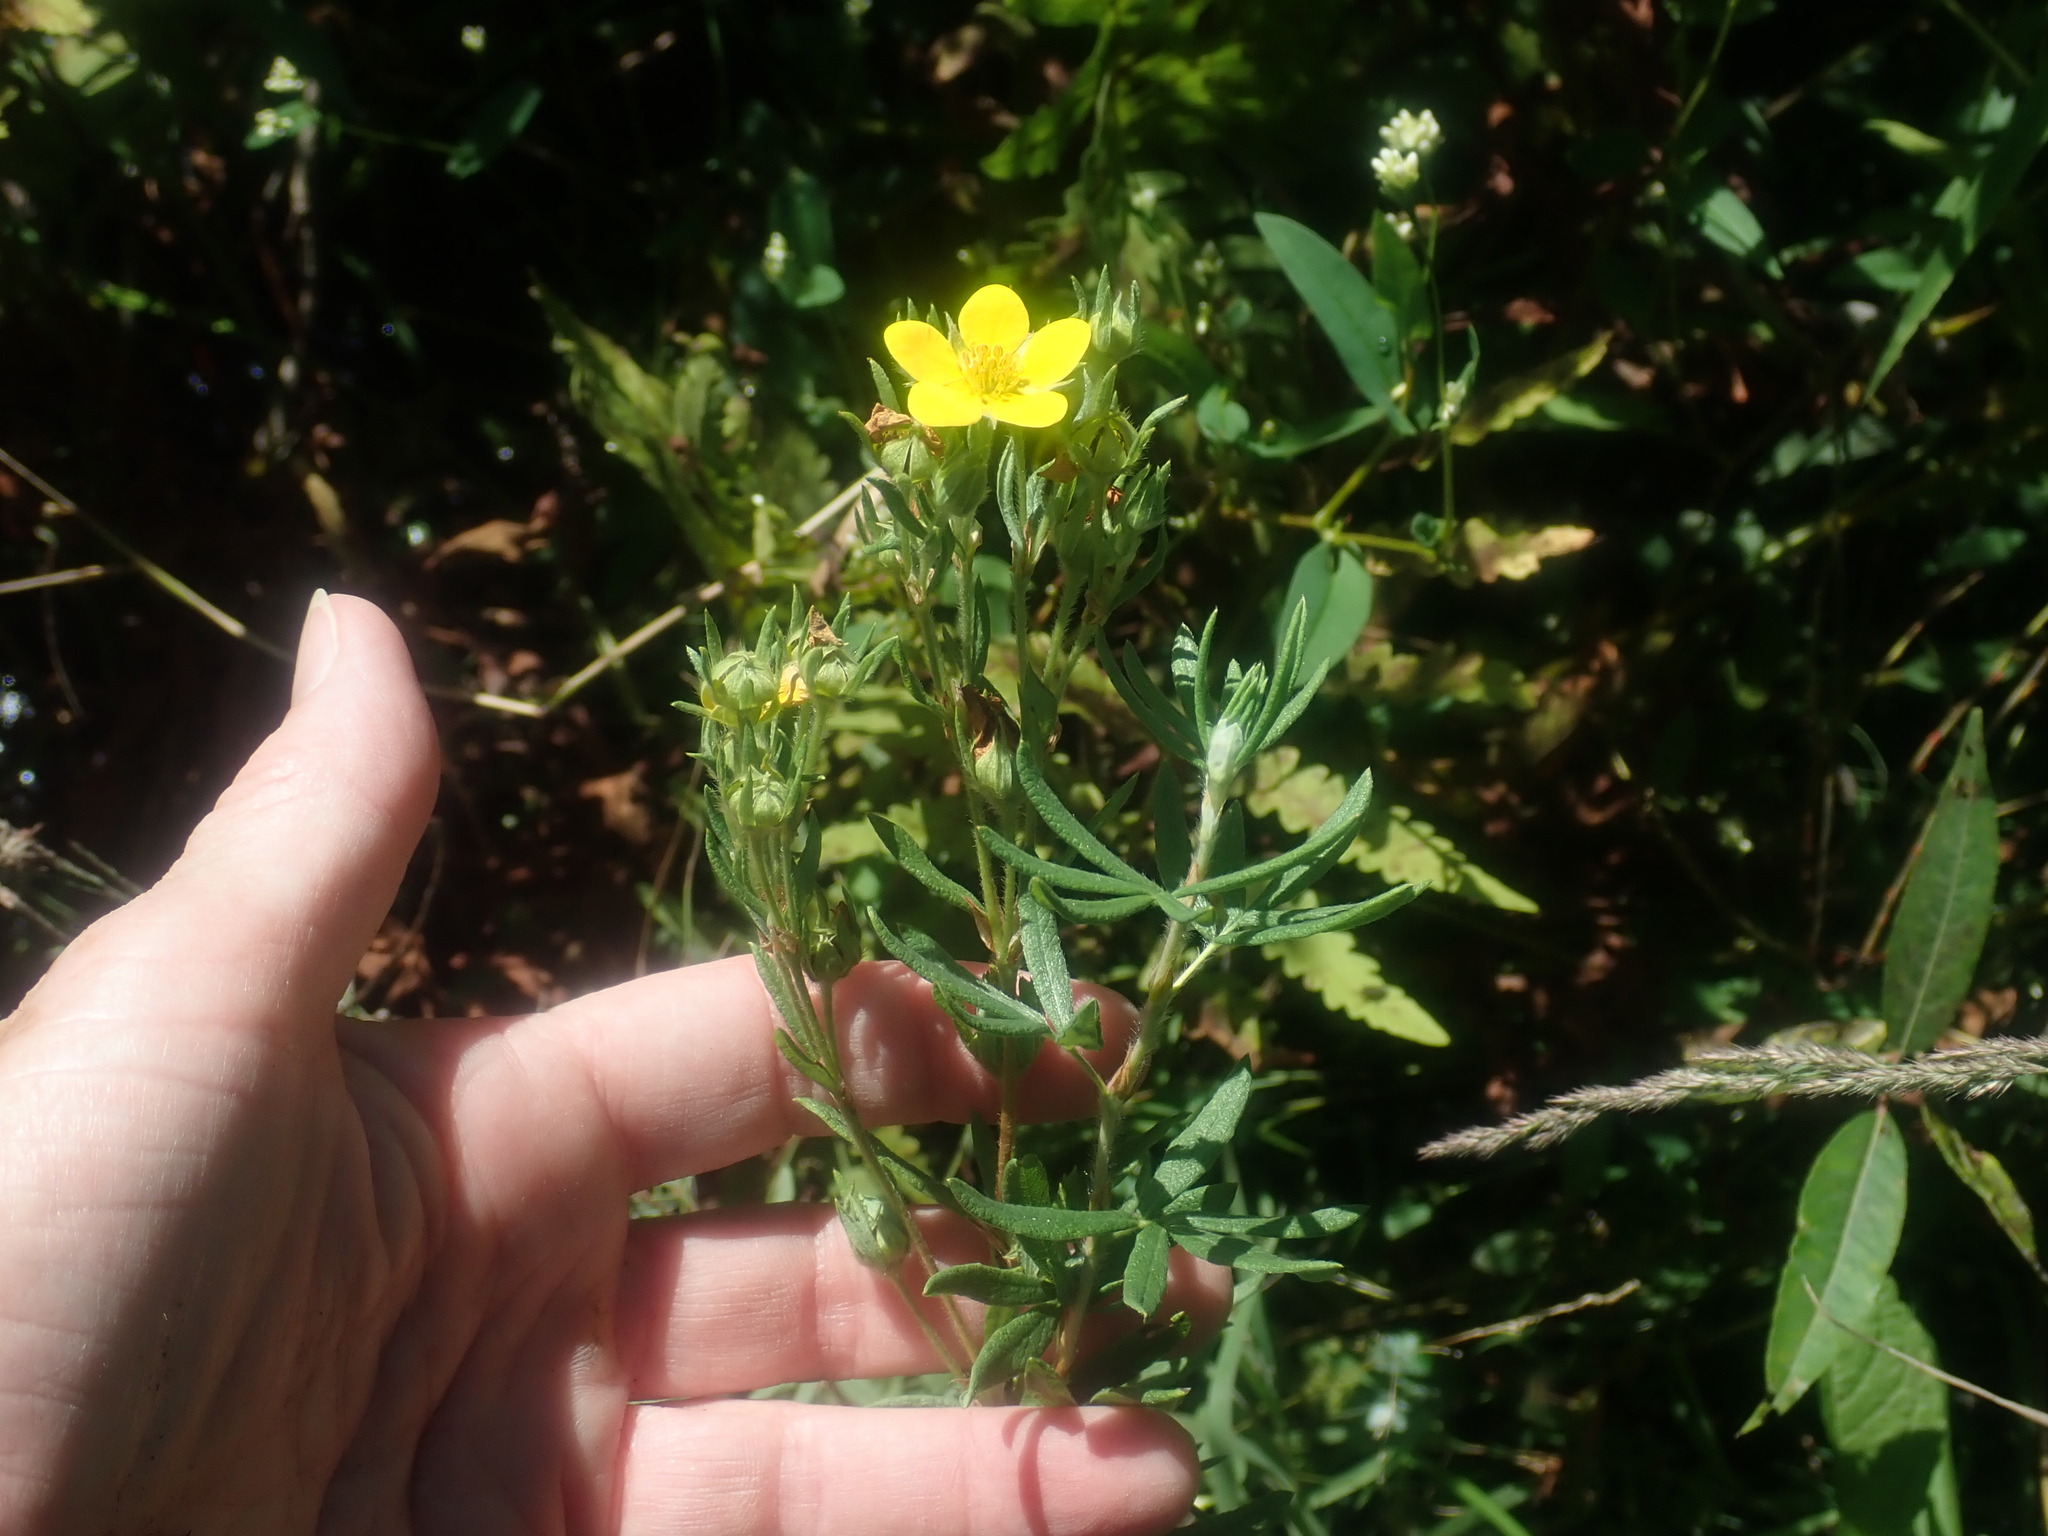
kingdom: Plantae
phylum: Tracheophyta
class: Magnoliopsida
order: Rosales
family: Rosaceae
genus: Dasiphora
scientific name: Dasiphora fruticosa
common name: Shrubby cinquefoil
